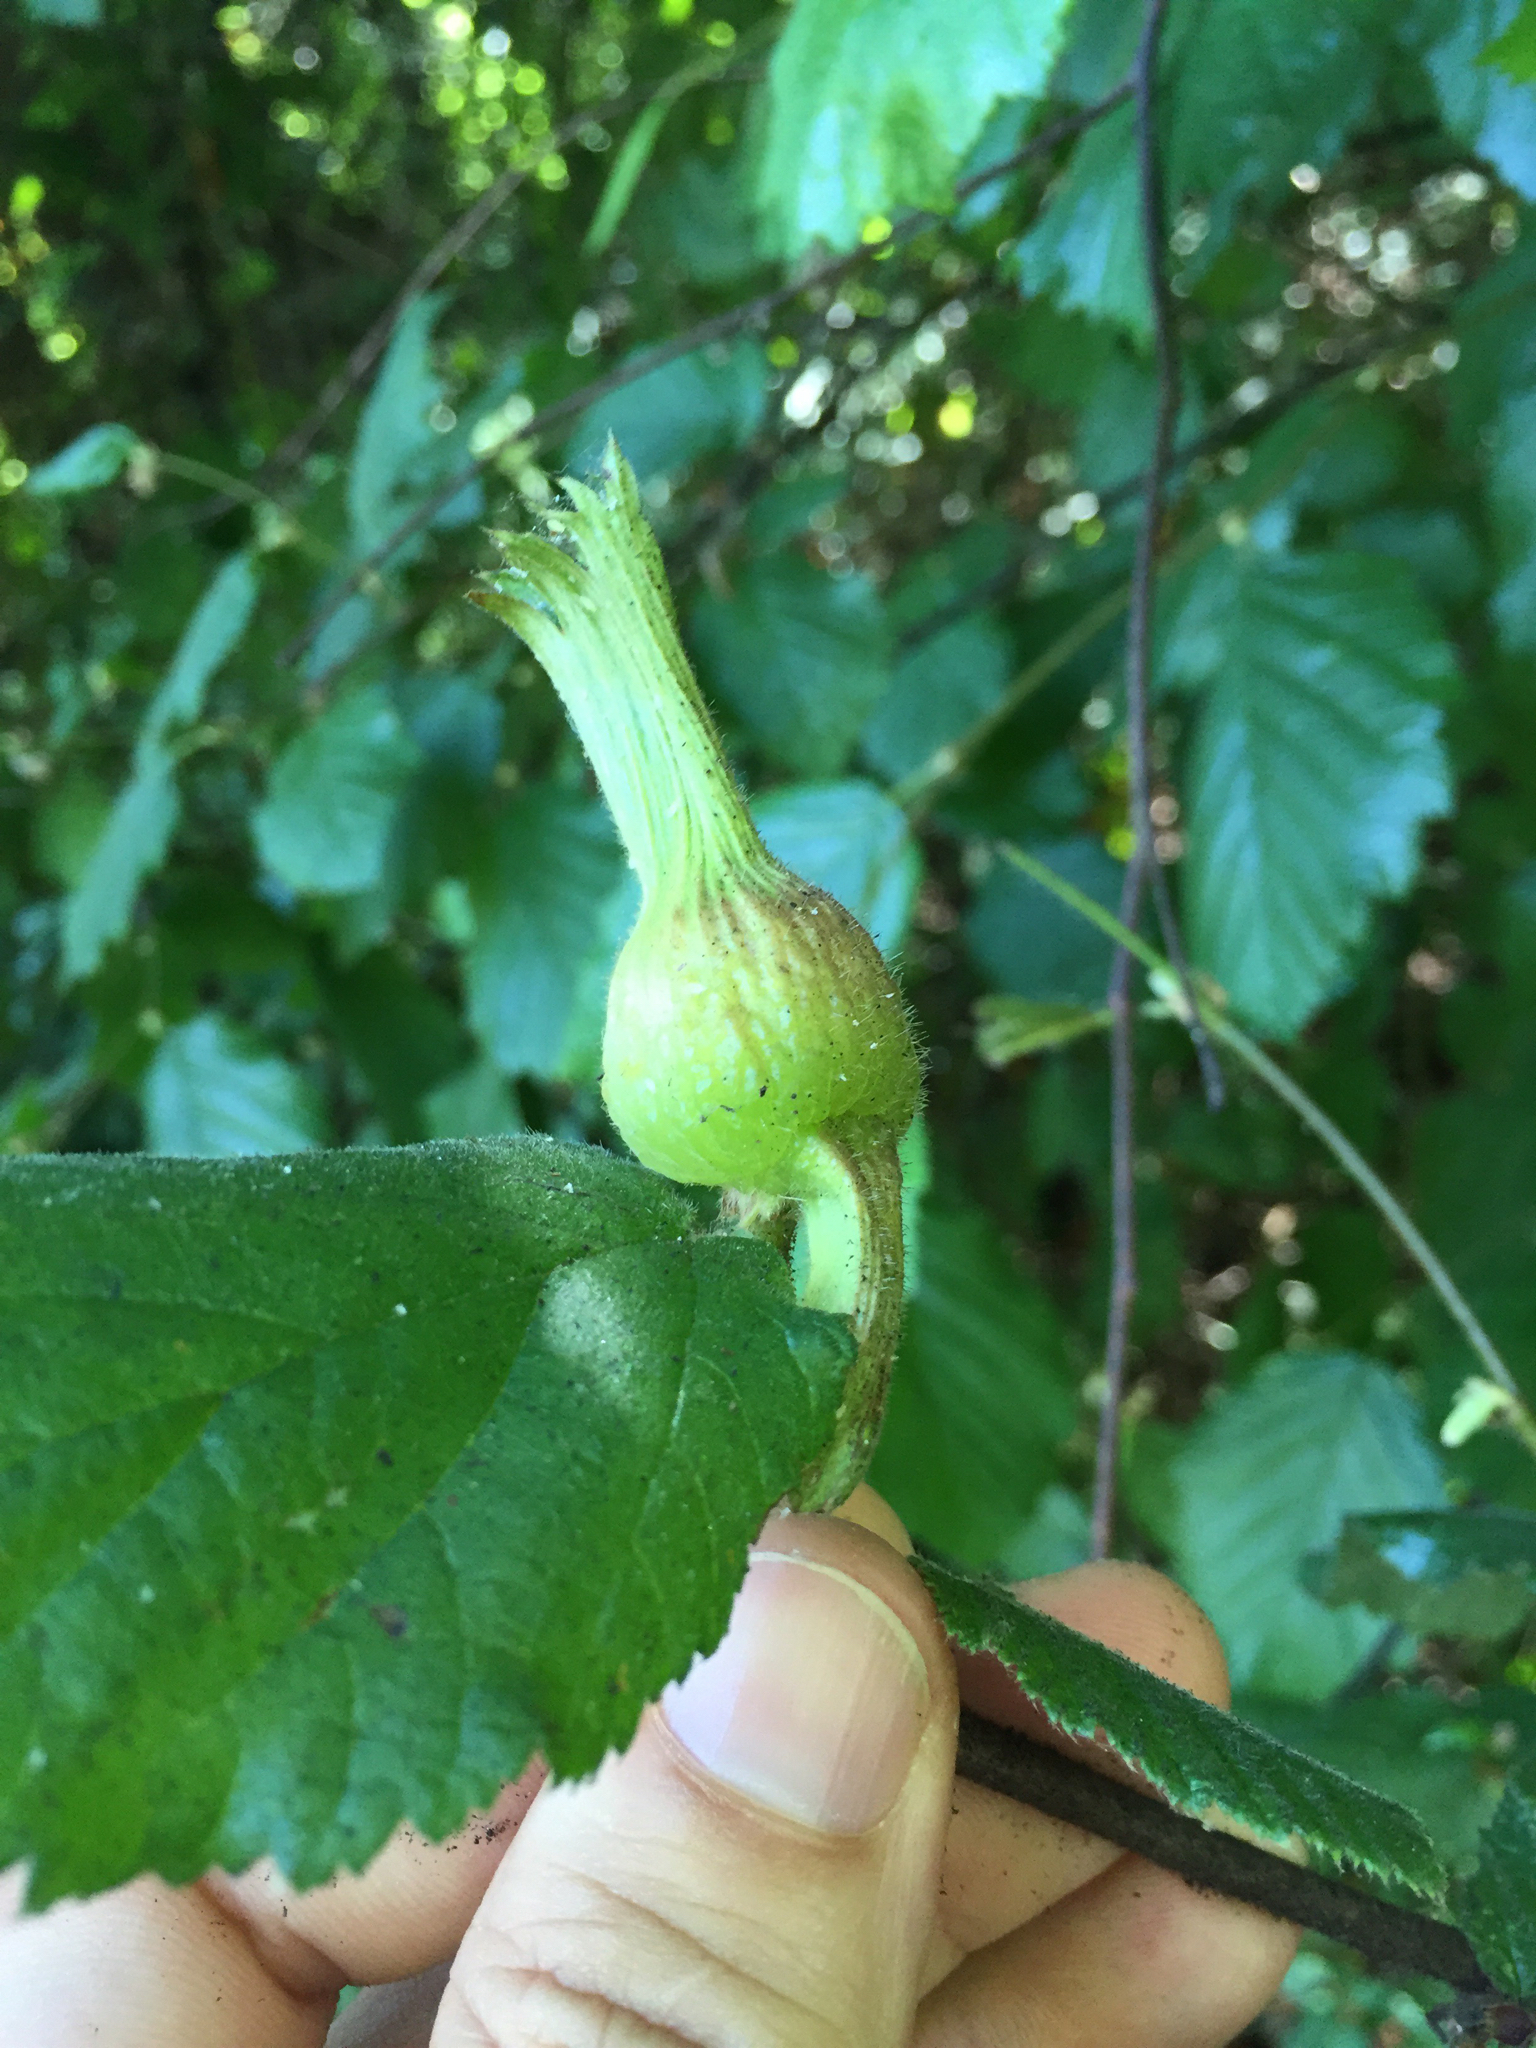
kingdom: Plantae
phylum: Tracheophyta
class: Magnoliopsida
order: Fagales
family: Betulaceae
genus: Corylus
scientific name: Corylus cornuta
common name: Beaked hazel
